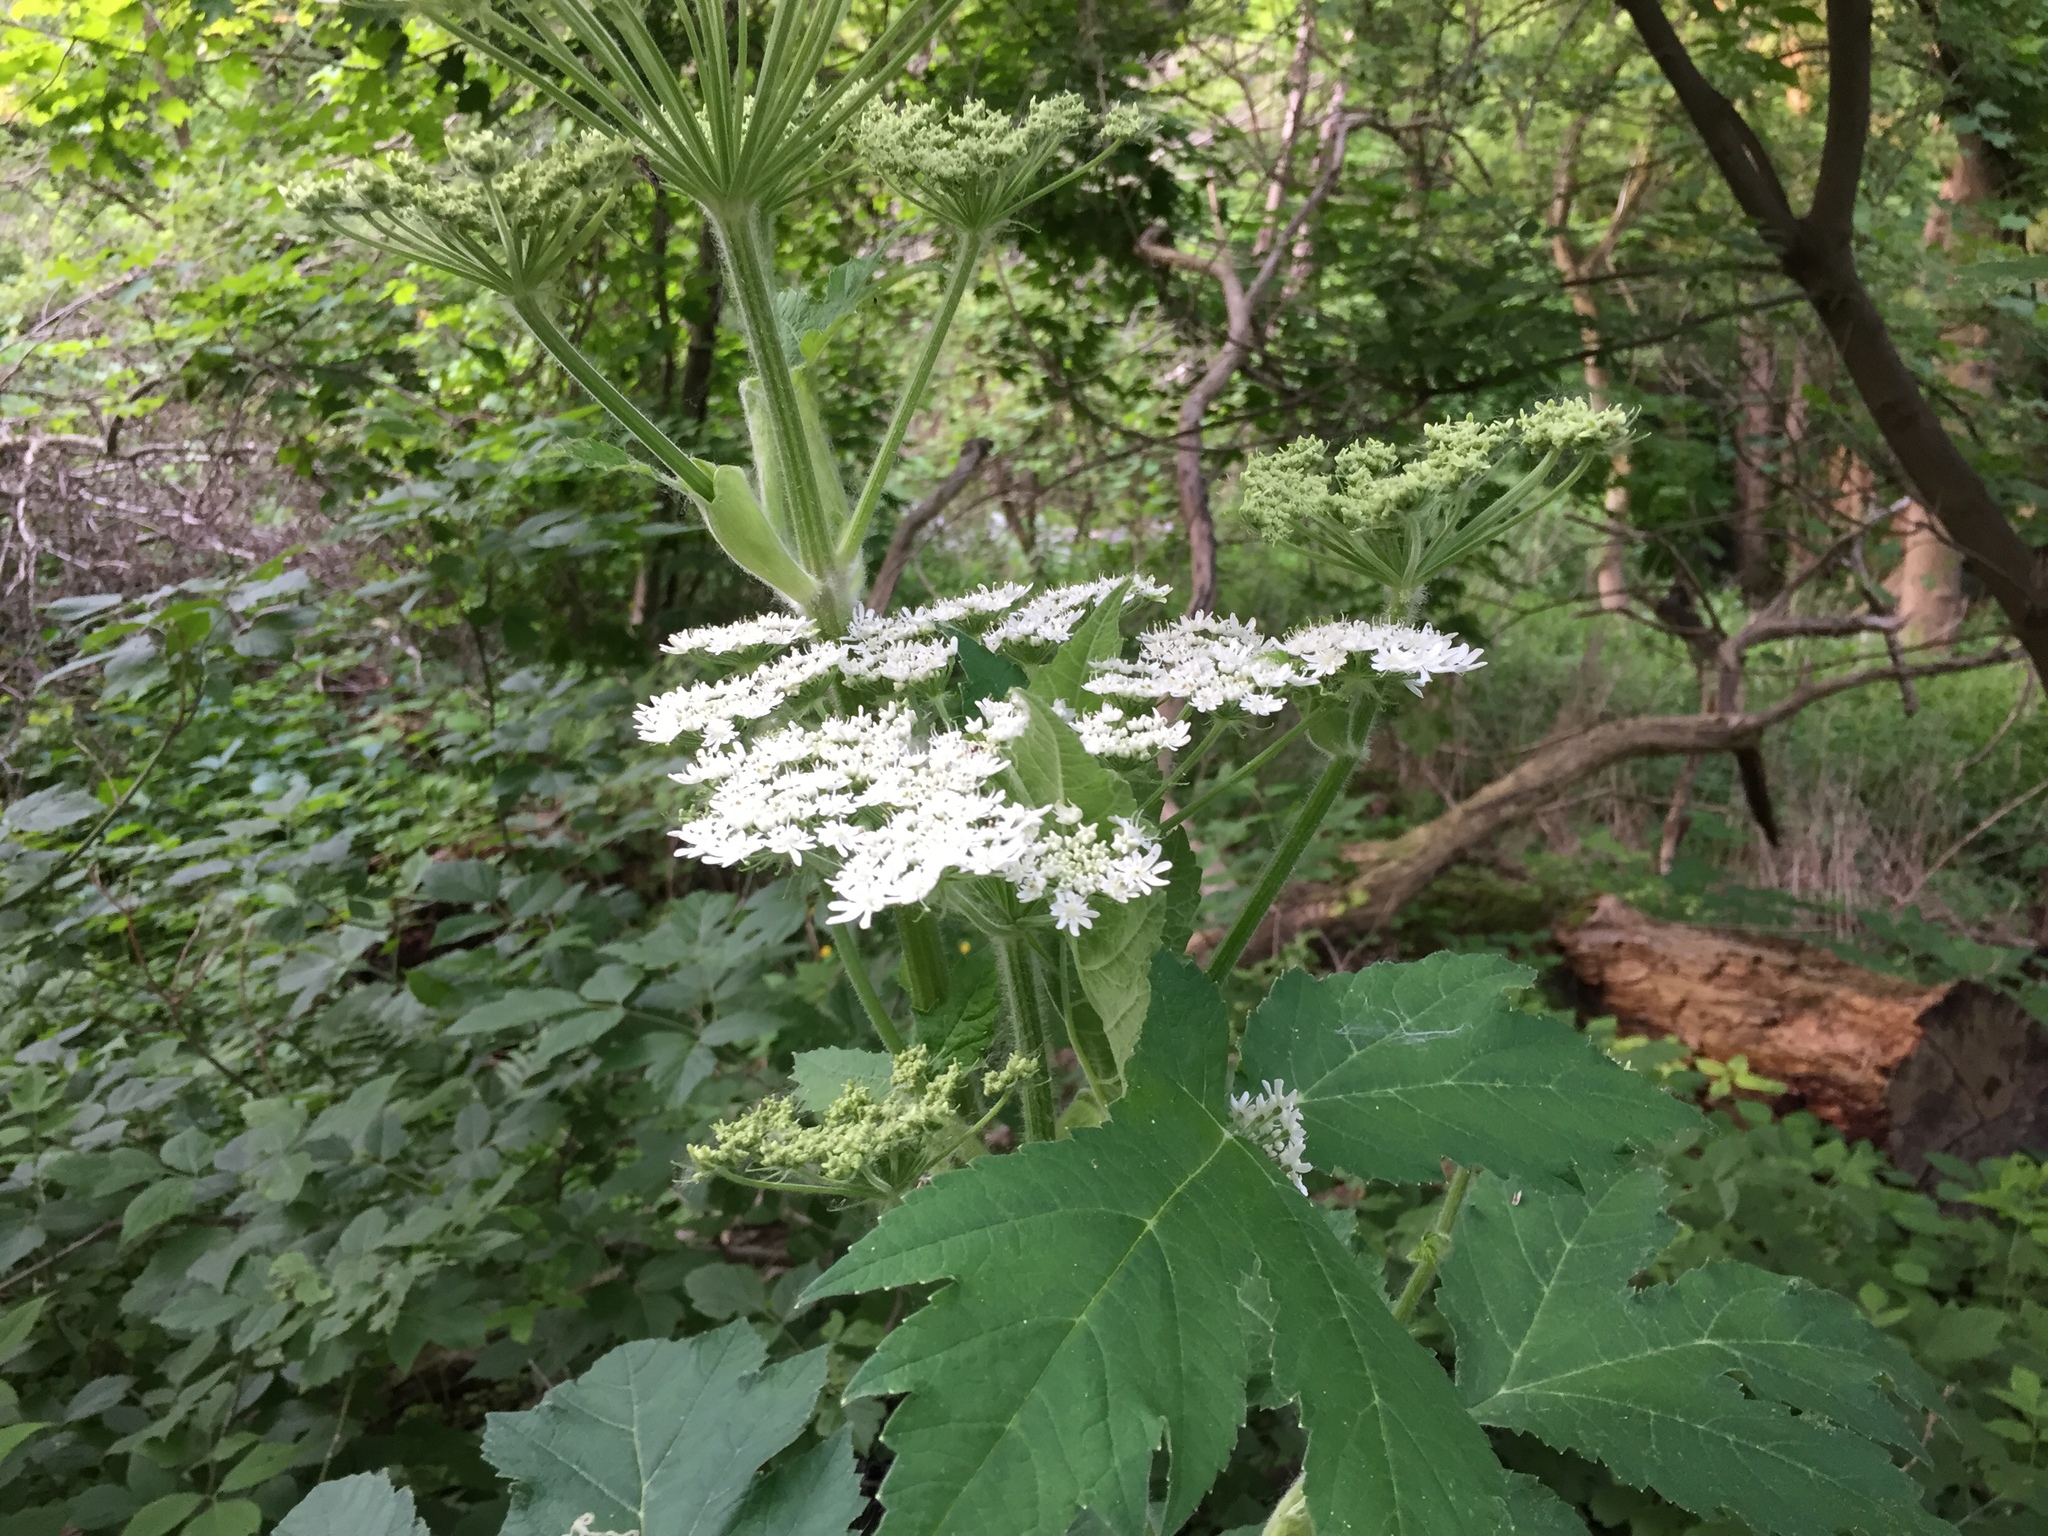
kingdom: Plantae
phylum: Tracheophyta
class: Magnoliopsida
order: Apiales
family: Apiaceae
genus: Heracleum
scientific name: Heracleum maximum
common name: American cow parsnip
